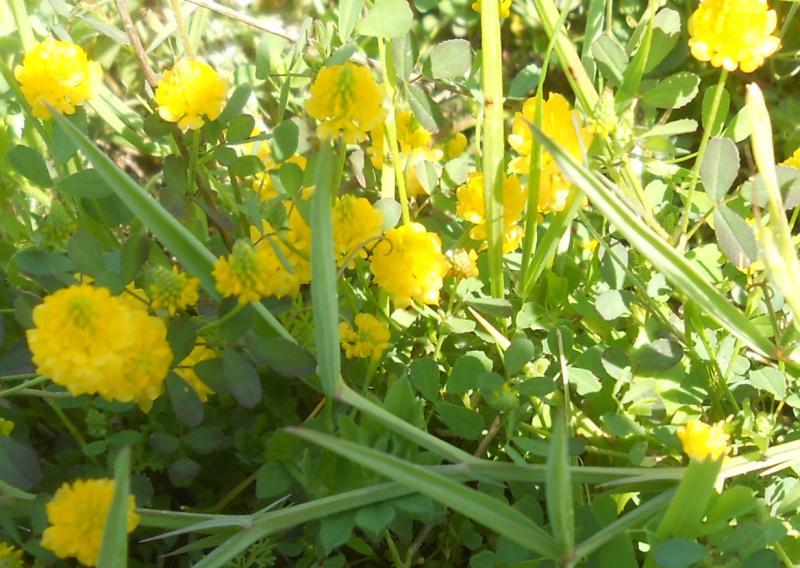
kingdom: Plantae
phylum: Tracheophyta
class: Magnoliopsida
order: Fabales
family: Fabaceae
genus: Trifolium
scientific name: Trifolium campestre
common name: Field clover
